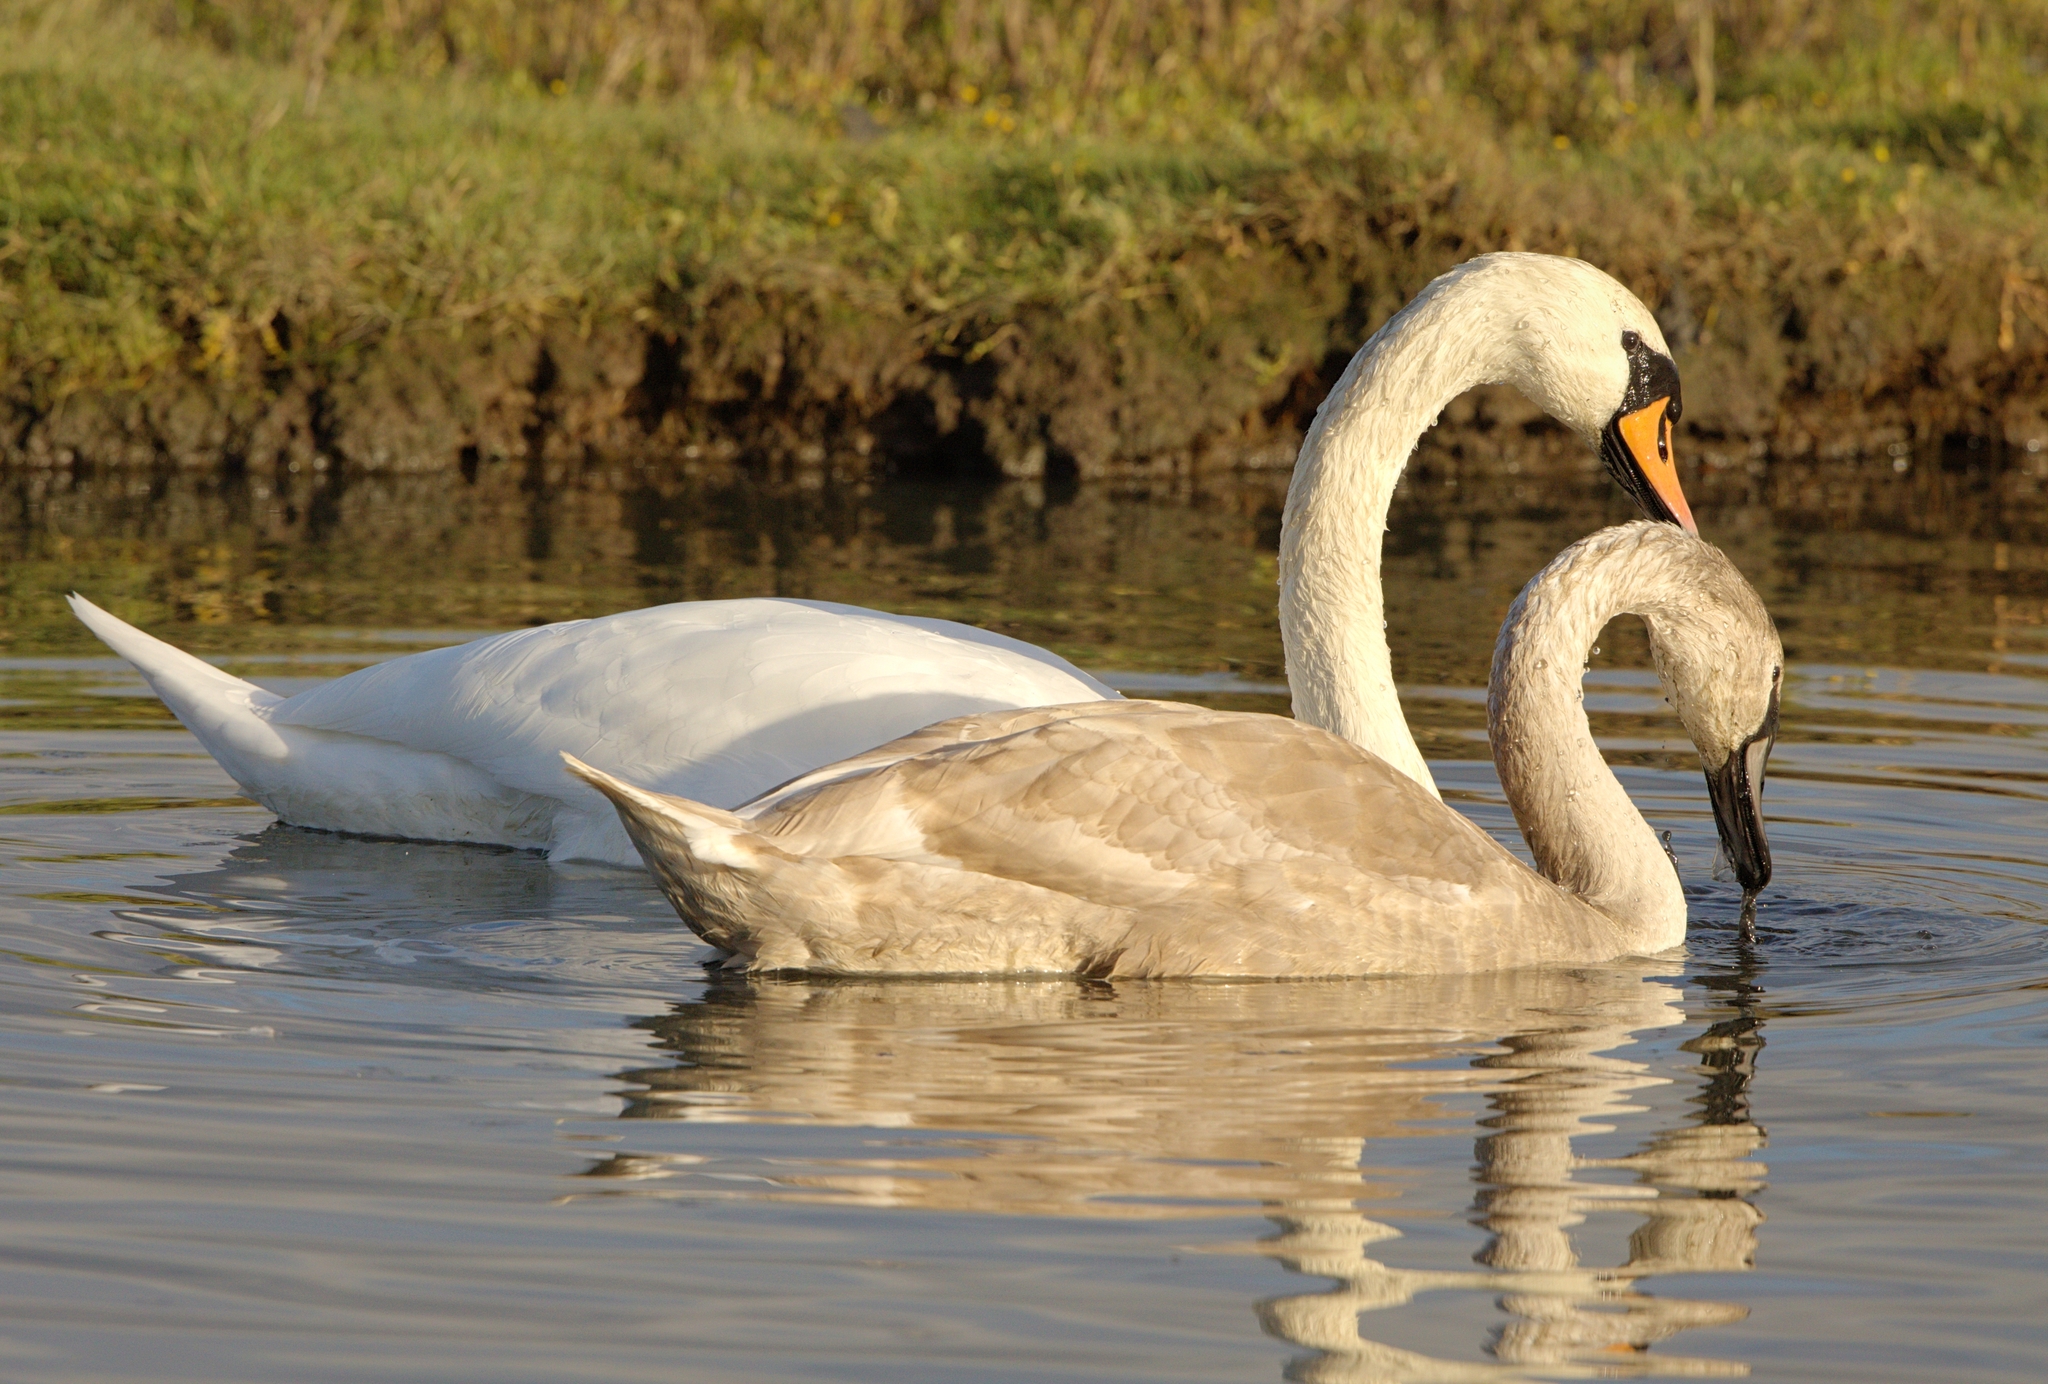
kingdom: Animalia
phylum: Chordata
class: Aves
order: Anseriformes
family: Anatidae
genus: Cygnus
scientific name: Cygnus olor
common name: Mute swan
